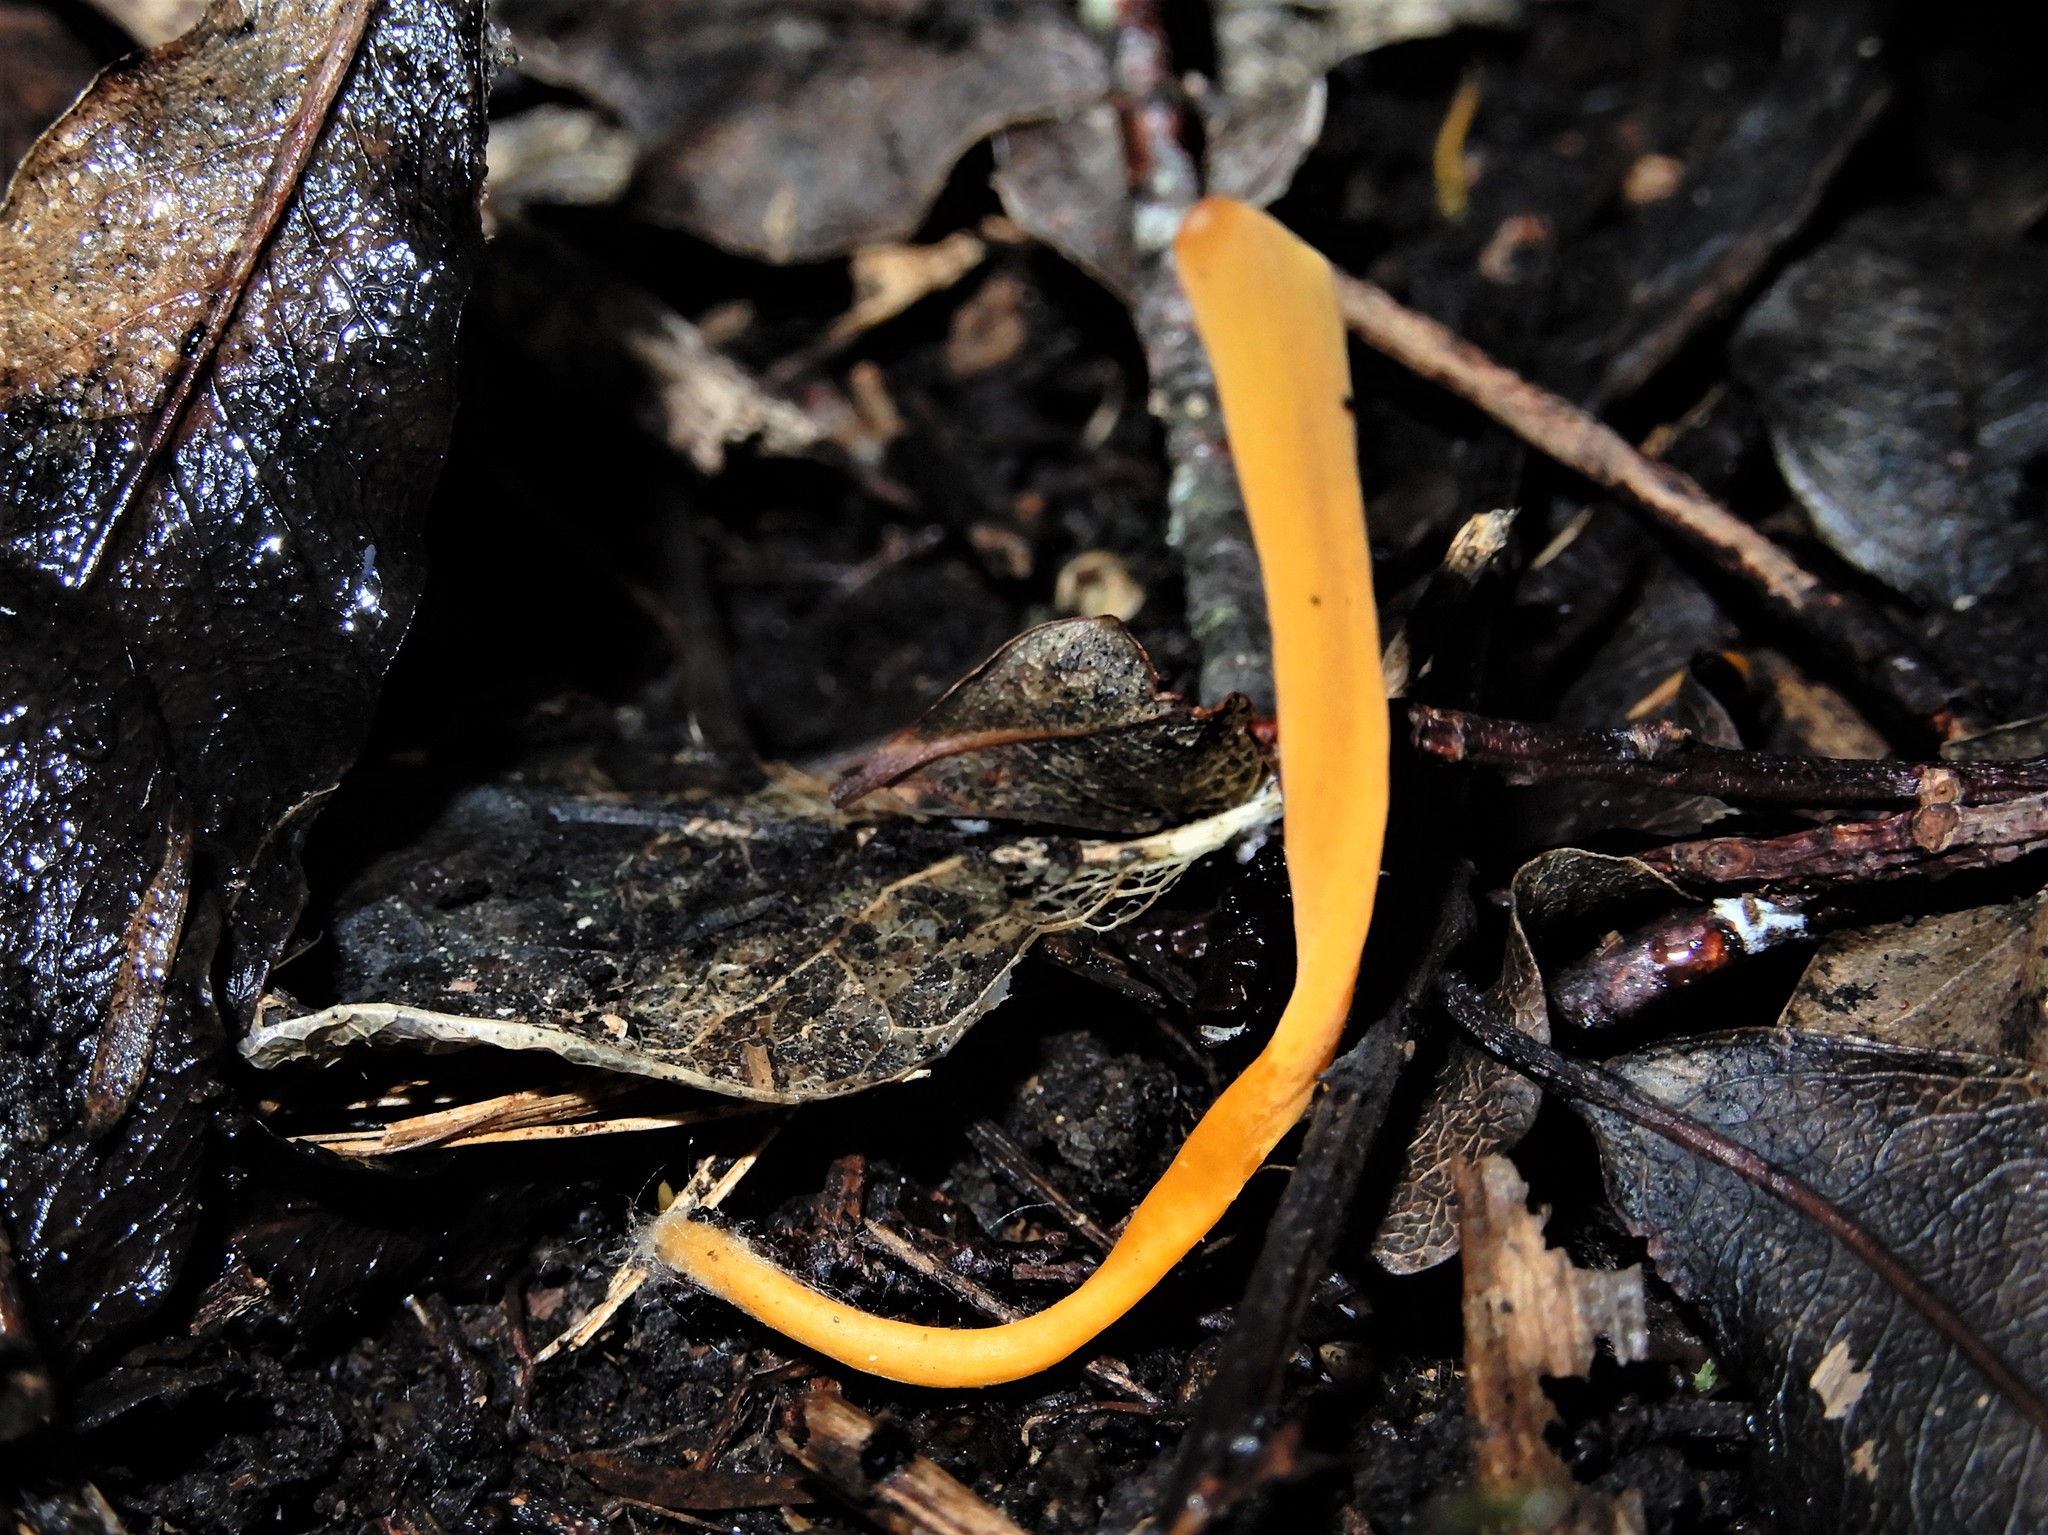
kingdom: Fungi
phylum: Basidiomycota
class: Agaricomycetes
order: Agaricales
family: Clavariaceae
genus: Clavulinopsis
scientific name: Clavulinopsis antillarum
